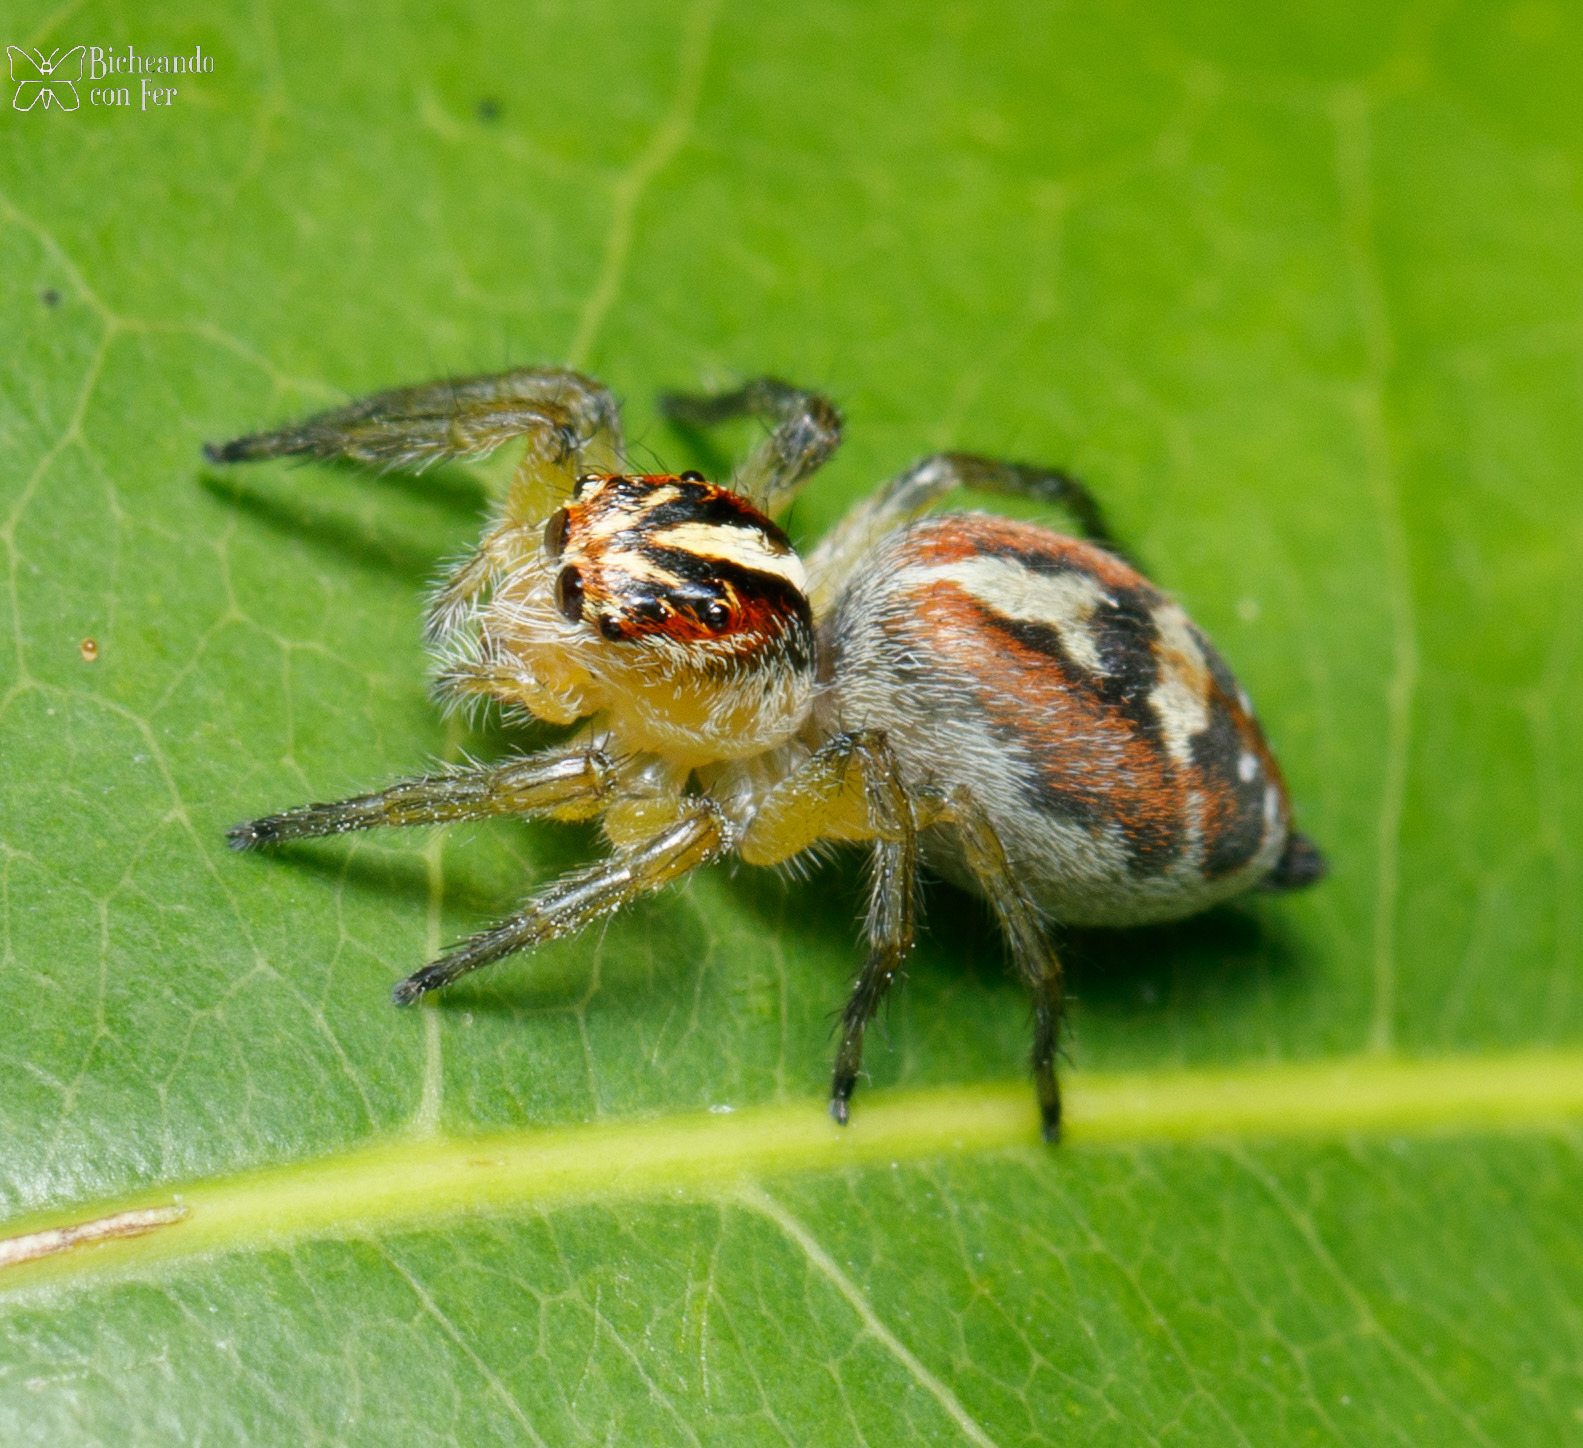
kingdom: Animalia
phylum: Arthropoda
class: Arachnida
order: Araneae
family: Salticidae
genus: Frigga
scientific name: Frigga pratensis
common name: Jumping spiders
